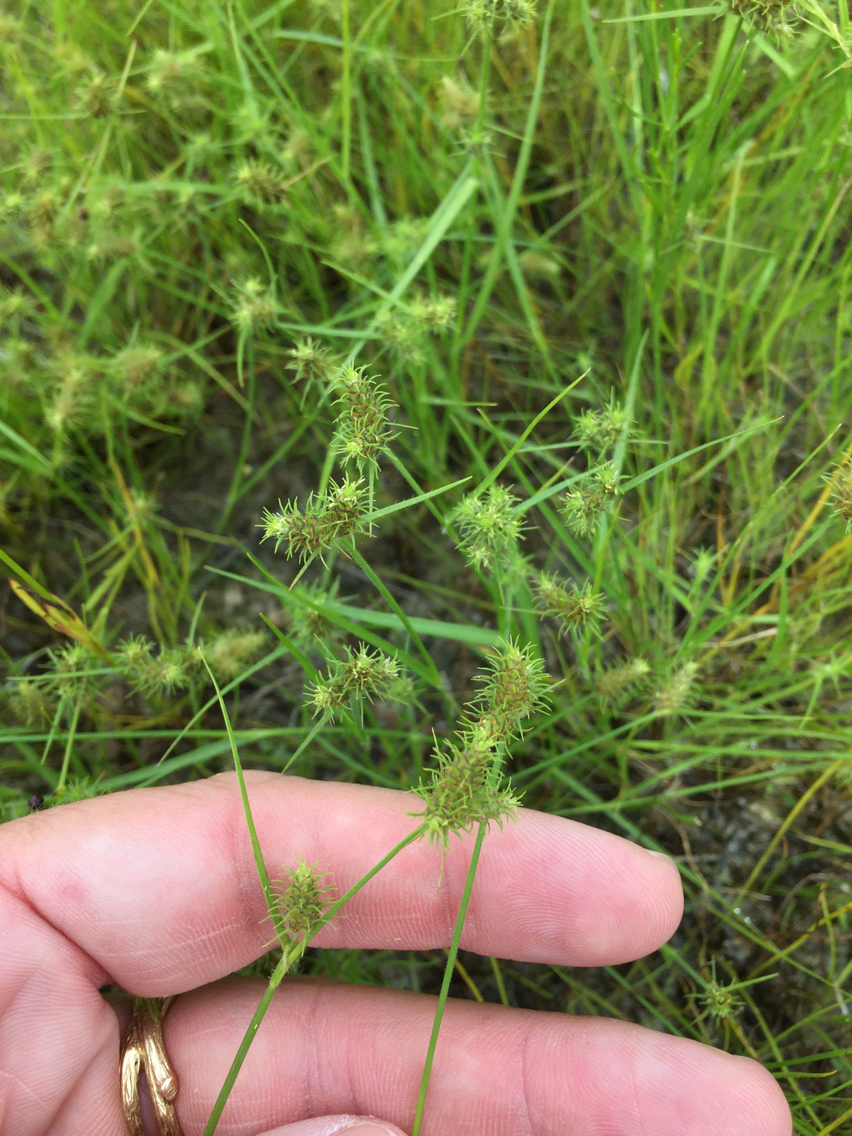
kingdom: Plantae
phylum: Tracheophyta
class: Liliopsida
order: Poales
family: Cyperaceae
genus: Fuirena
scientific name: Fuirena simplex
